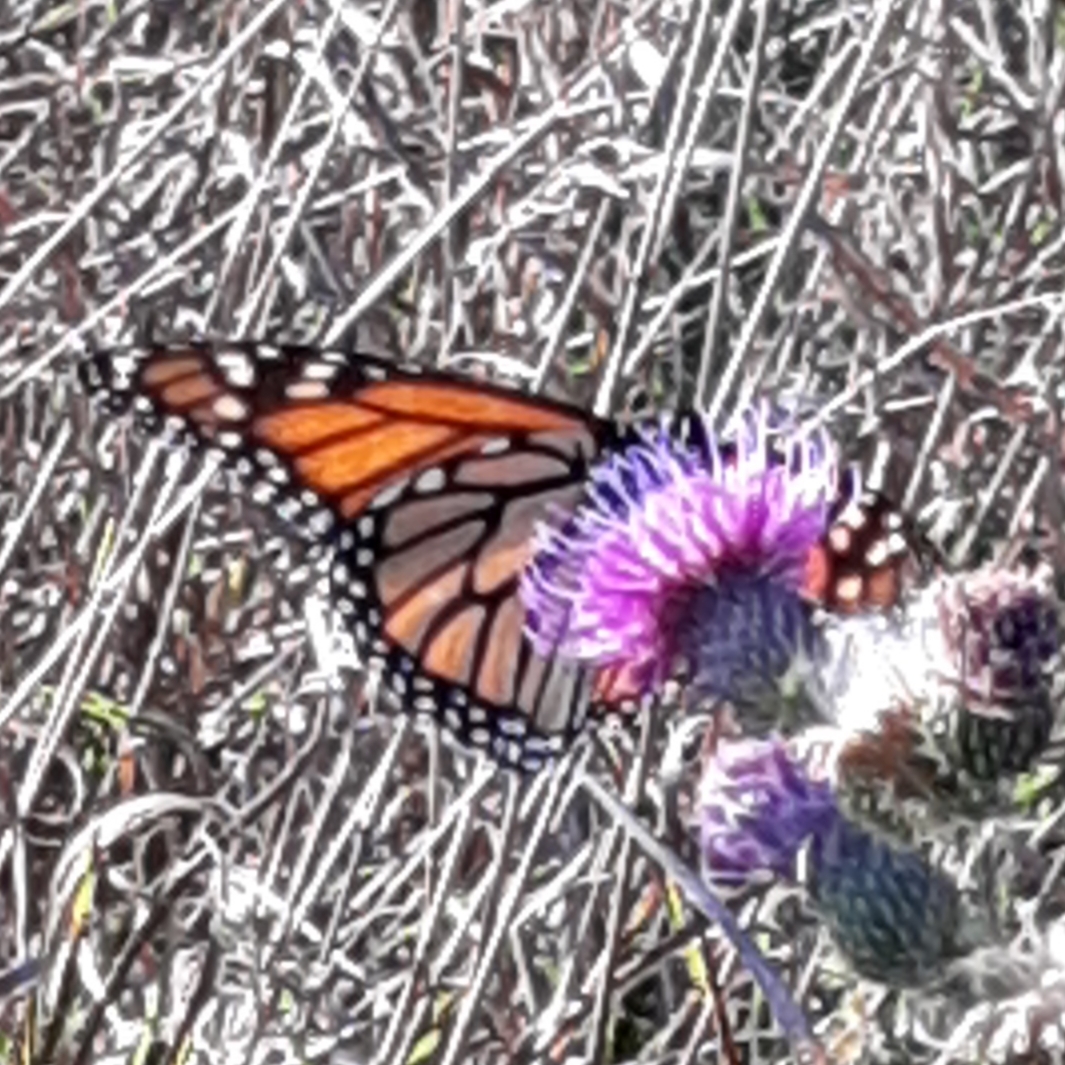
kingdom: Animalia
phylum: Arthropoda
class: Insecta
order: Lepidoptera
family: Nymphalidae
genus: Danaus
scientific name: Danaus plexippus
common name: Monarch
